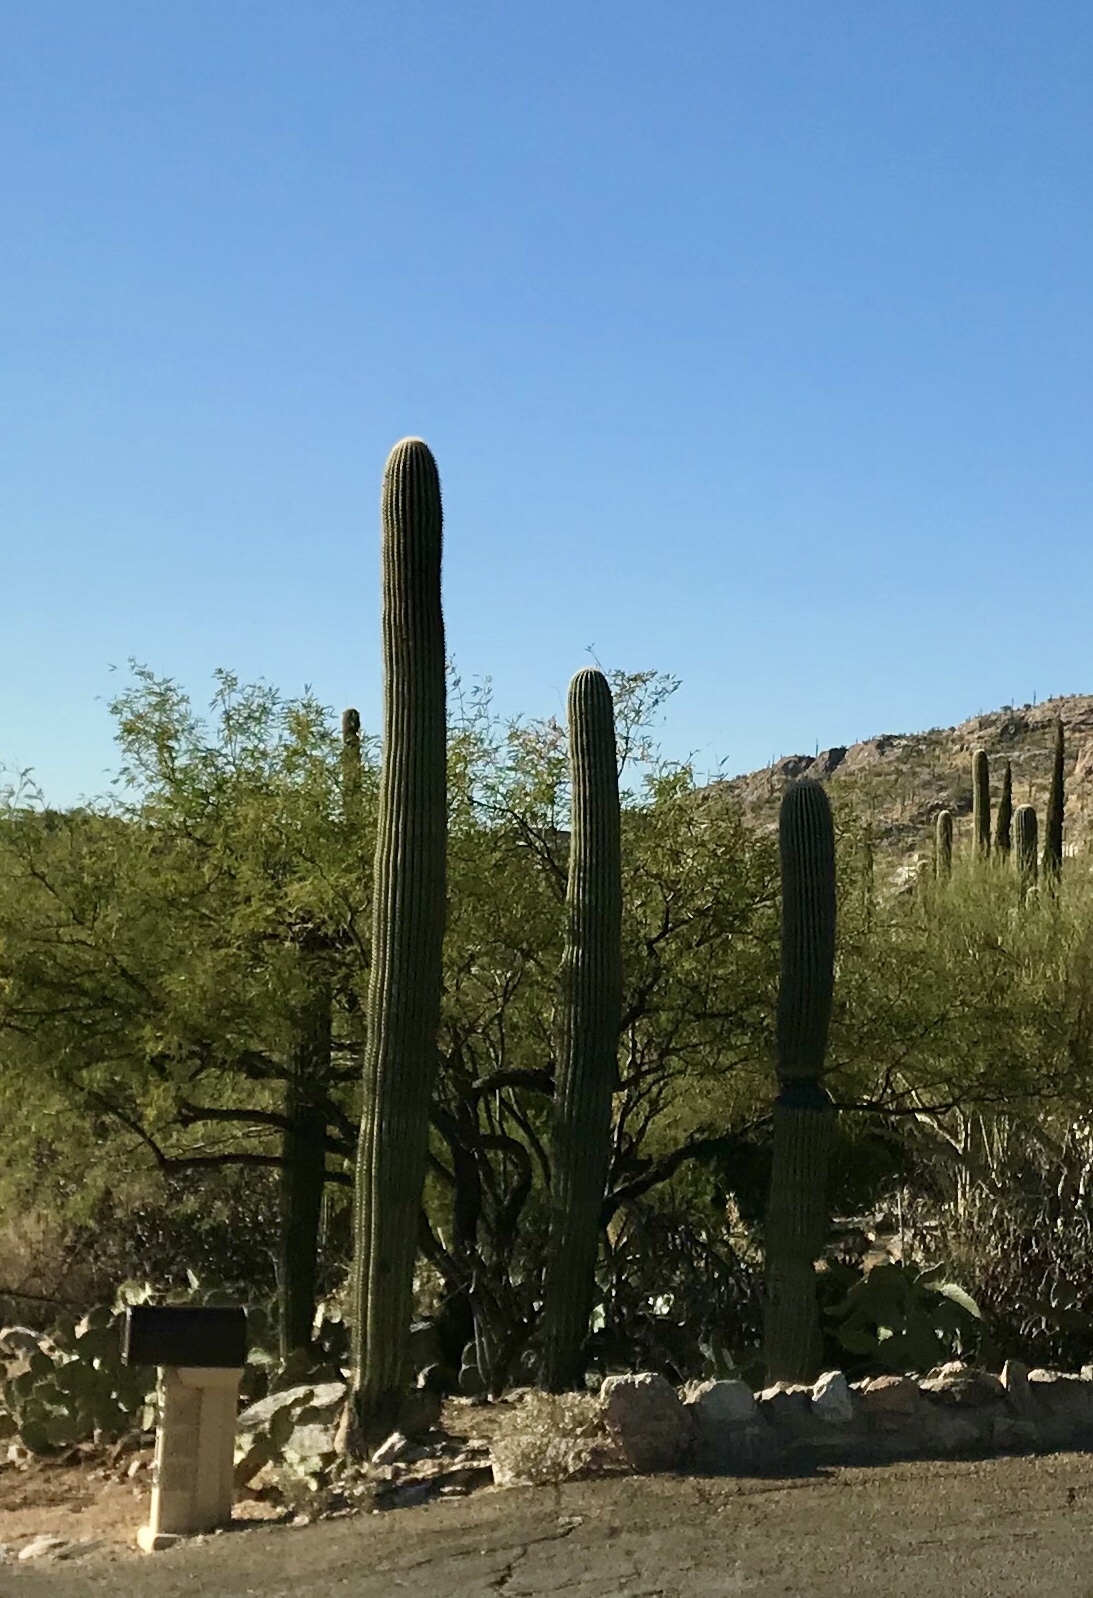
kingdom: Plantae
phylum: Tracheophyta
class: Magnoliopsida
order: Caryophyllales
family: Cactaceae
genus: Carnegiea
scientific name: Carnegiea gigantea
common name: Saguaro
